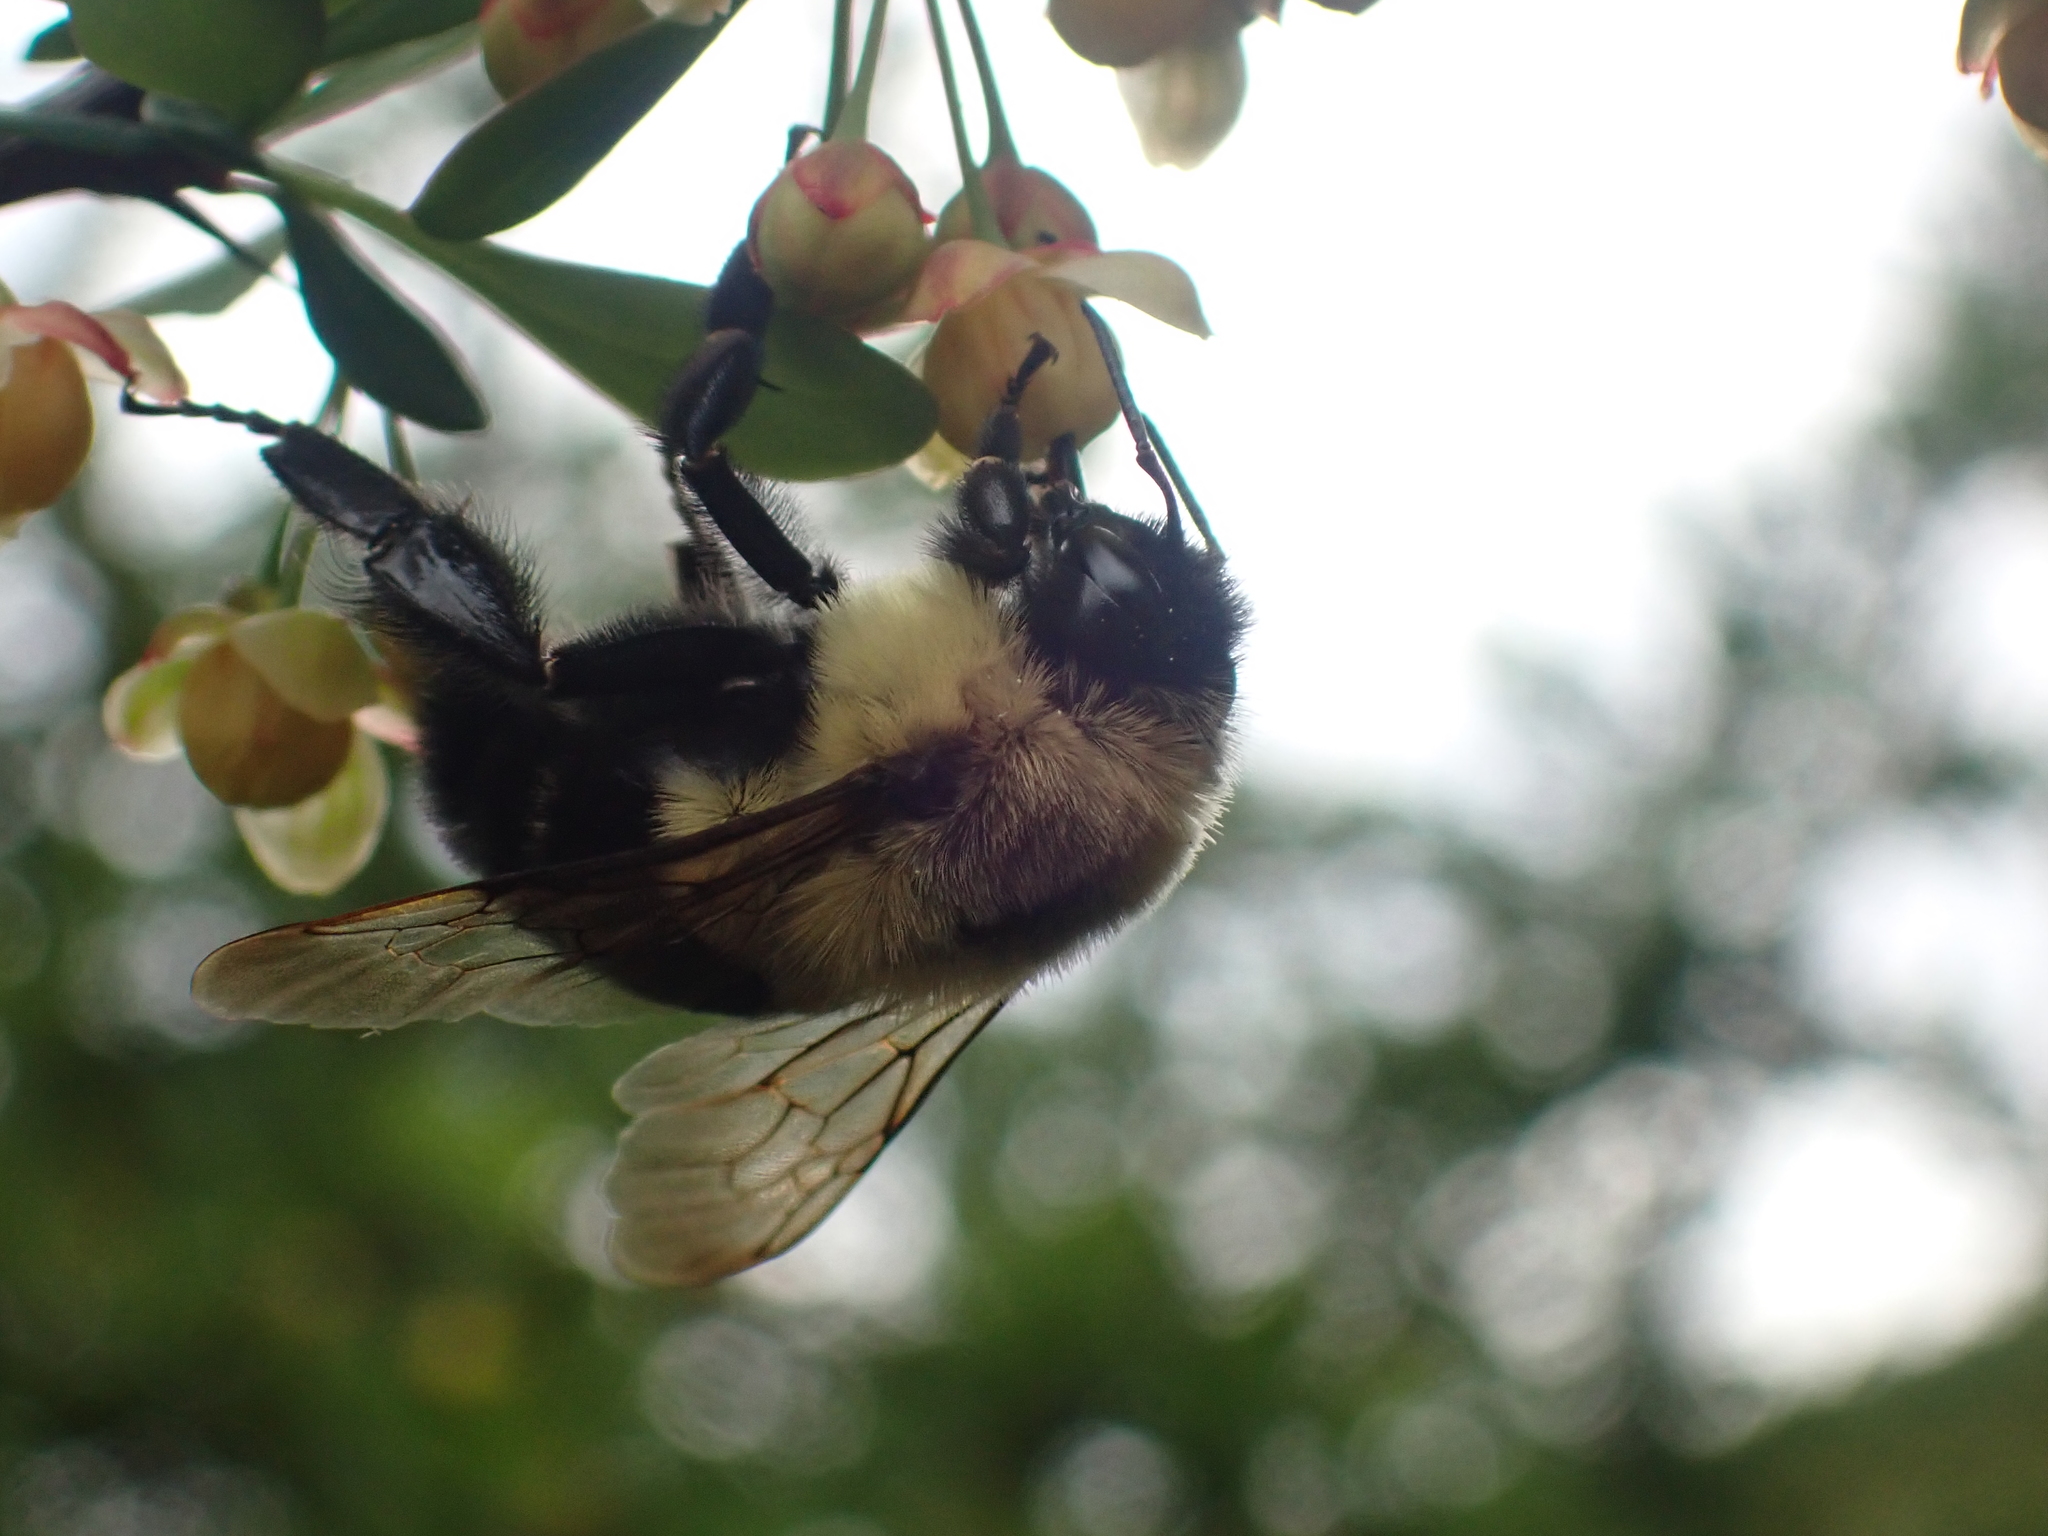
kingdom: Animalia
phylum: Arthropoda
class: Insecta
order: Hymenoptera
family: Apidae
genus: Bombus
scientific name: Bombus impatiens
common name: Common eastern bumble bee
